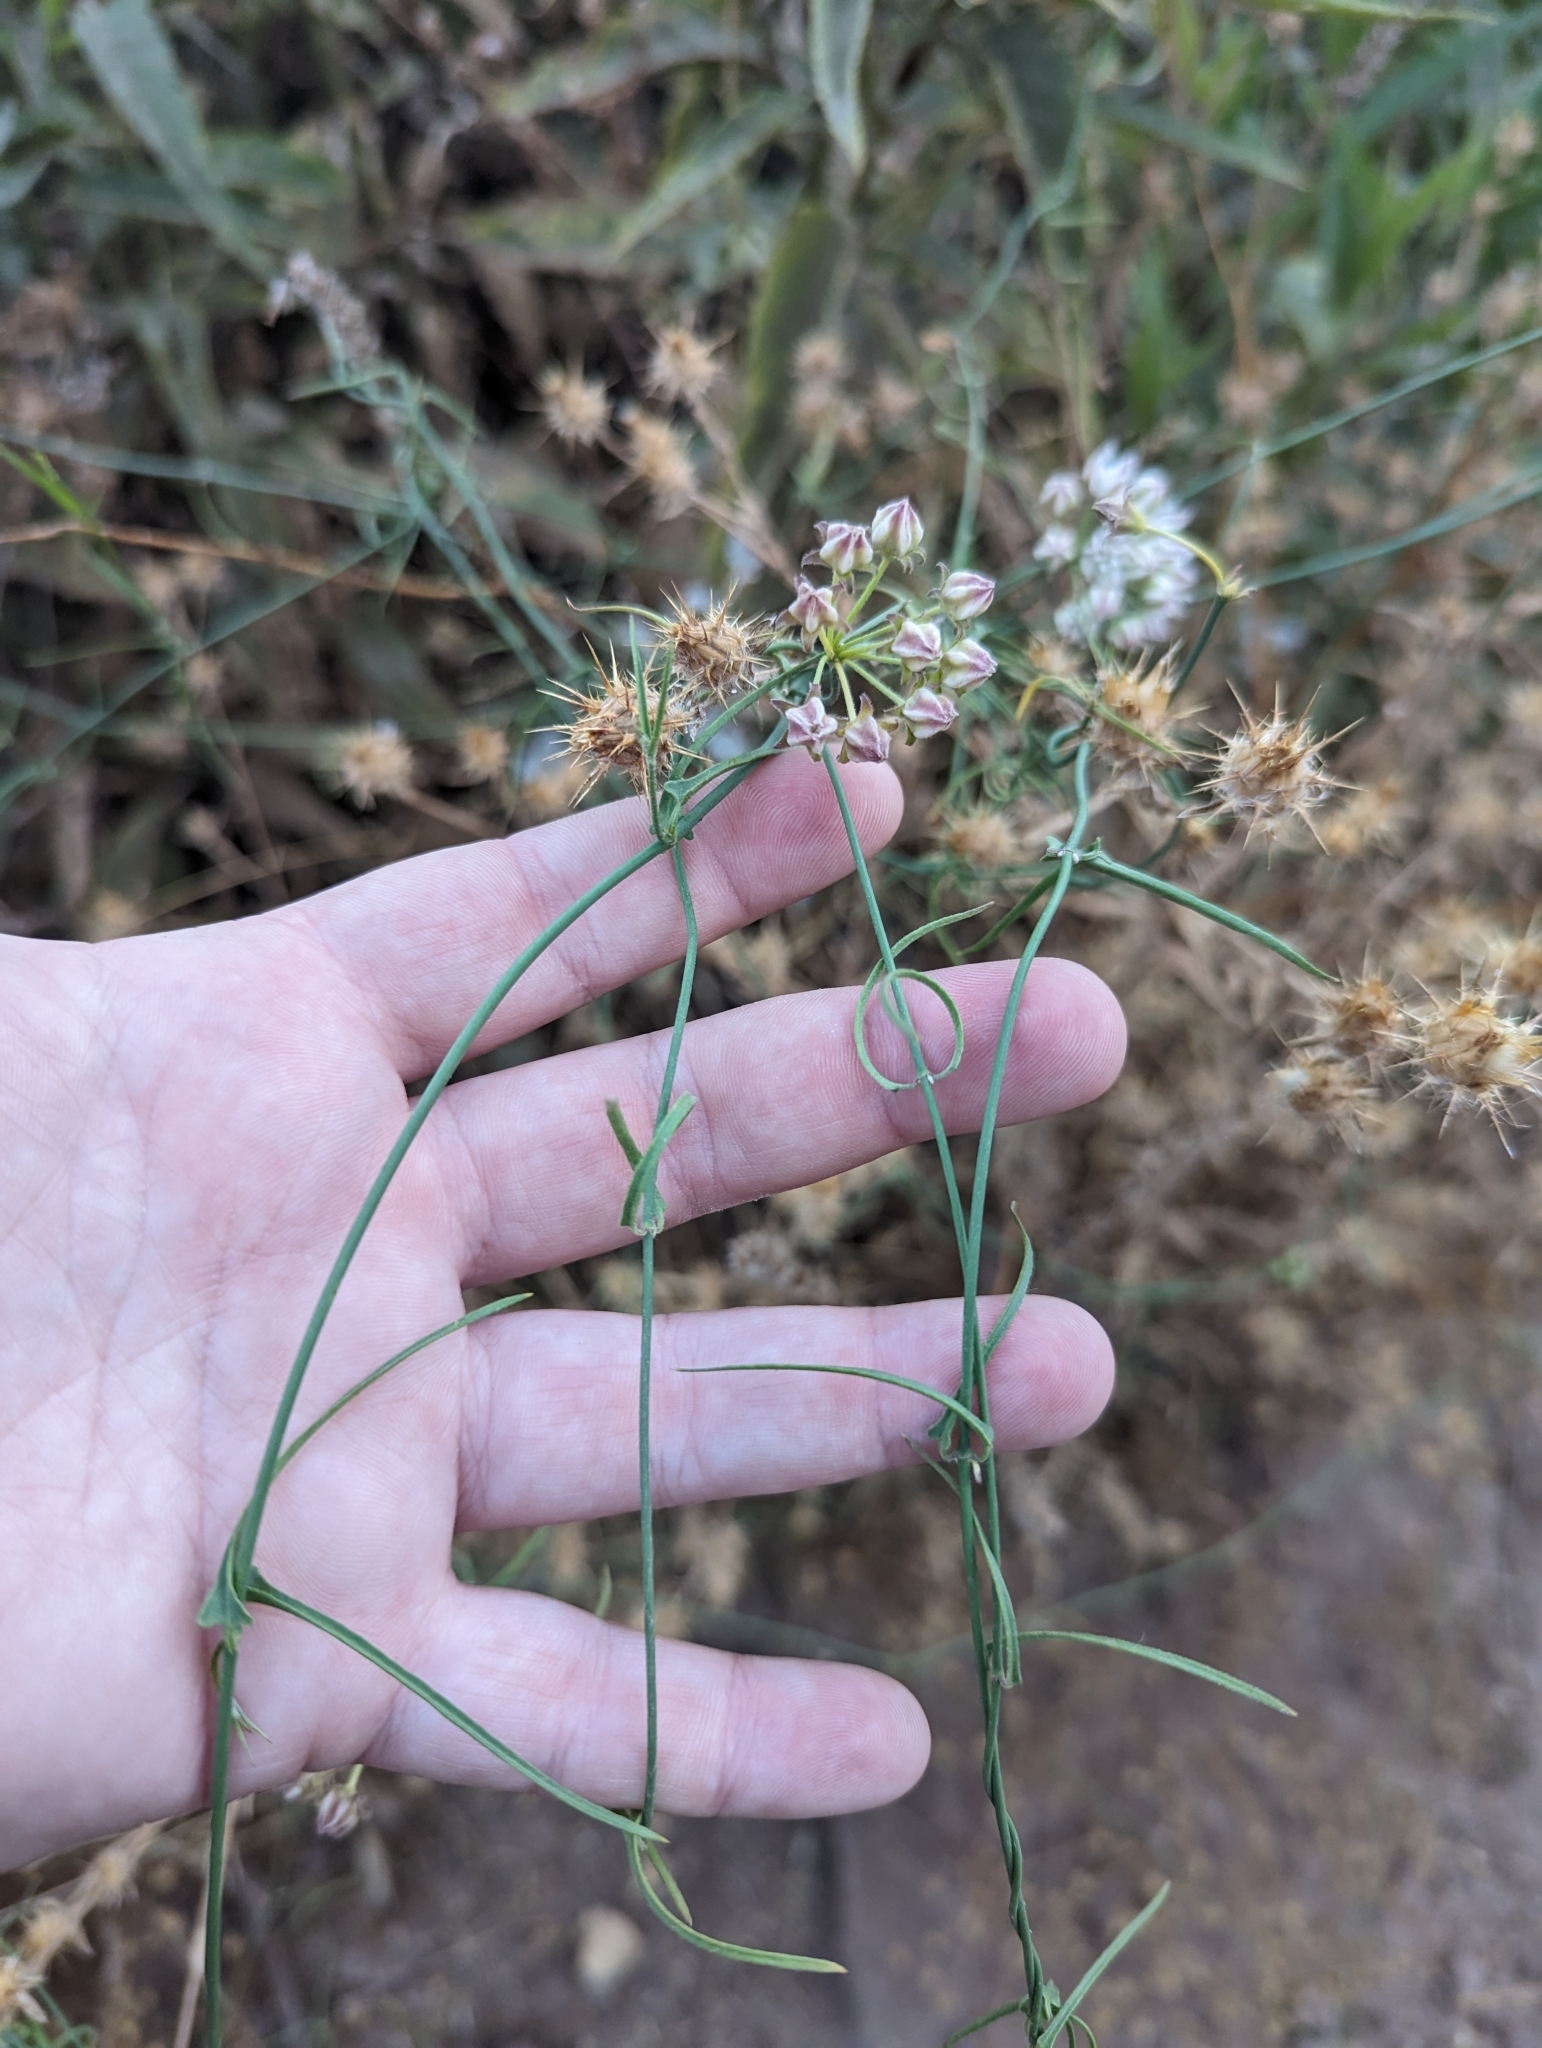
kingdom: Plantae
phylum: Tracheophyta
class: Magnoliopsida
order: Gentianales
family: Apocynaceae
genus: Funastrum
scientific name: Funastrum heterophyllum
